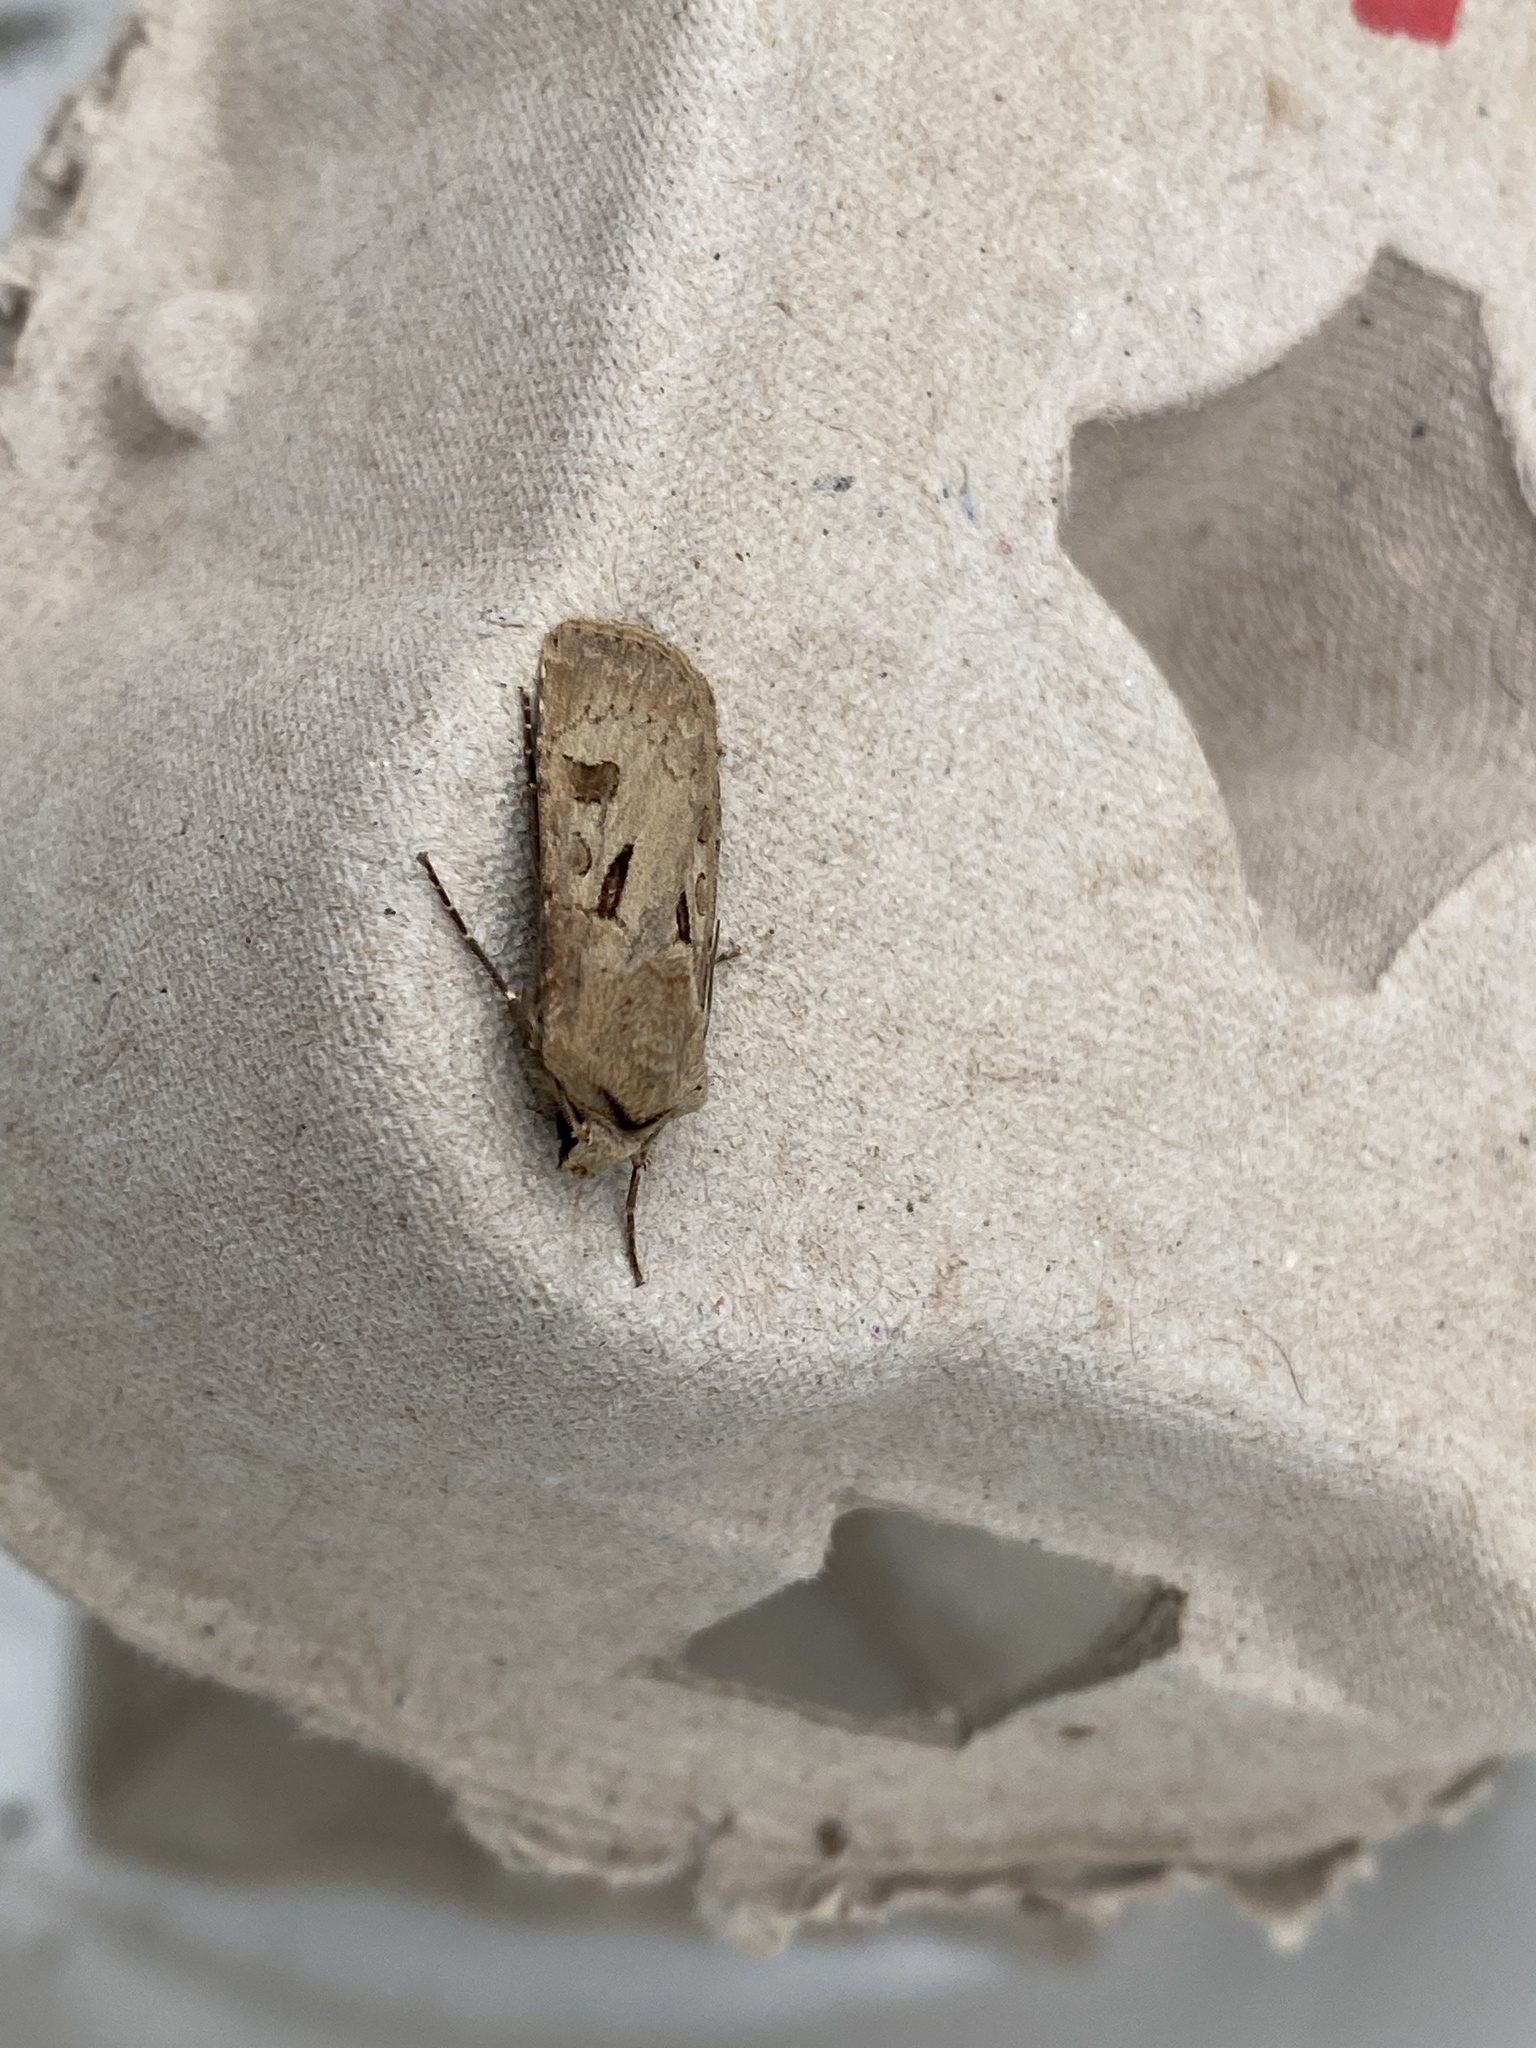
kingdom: Animalia
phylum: Arthropoda
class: Insecta
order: Lepidoptera
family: Noctuidae
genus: Agrotis
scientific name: Agrotis exclamationis
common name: Heart and dart
